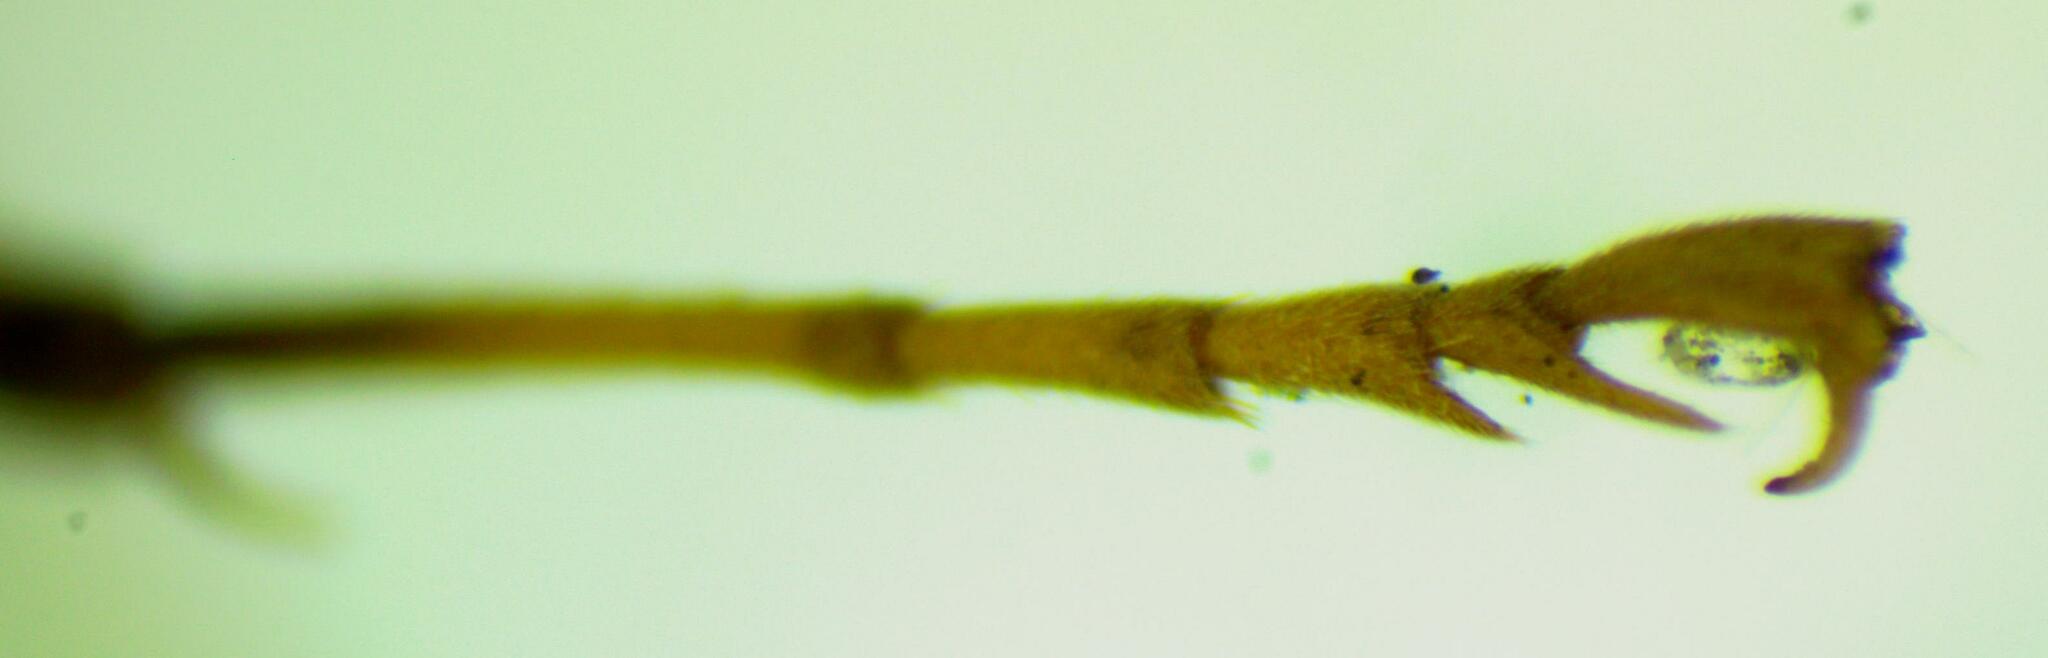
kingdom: Animalia
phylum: Arthropoda
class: Insecta
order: Hymenoptera
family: Vespidae
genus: Mischocyttarus
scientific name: Mischocyttarus basimacula
